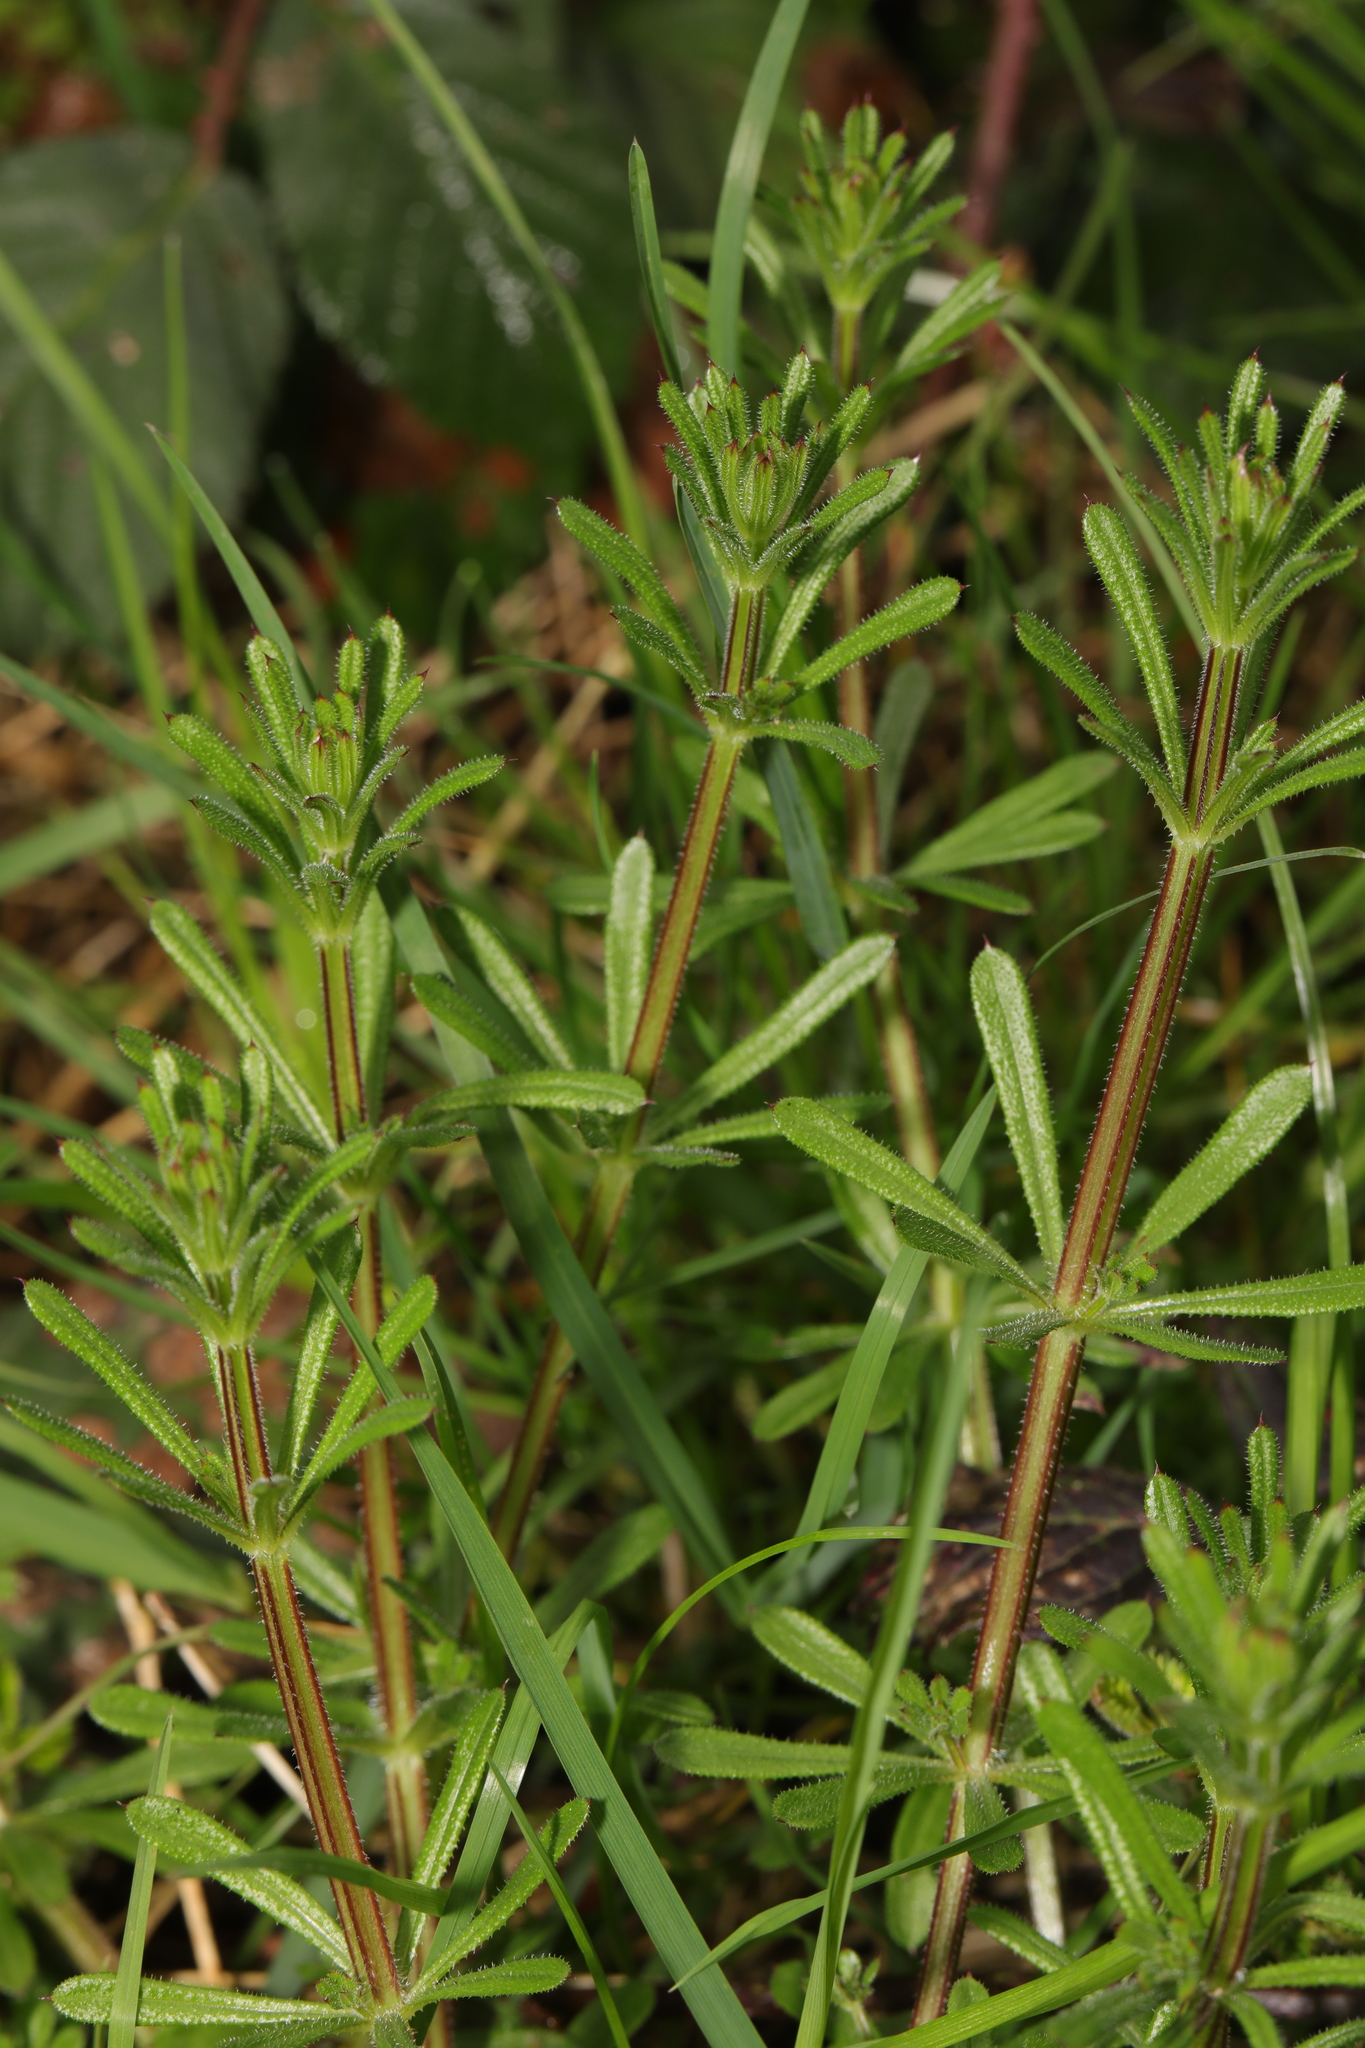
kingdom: Plantae
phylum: Tracheophyta
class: Magnoliopsida
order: Gentianales
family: Rubiaceae
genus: Galium
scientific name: Galium aparine
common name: Cleavers
